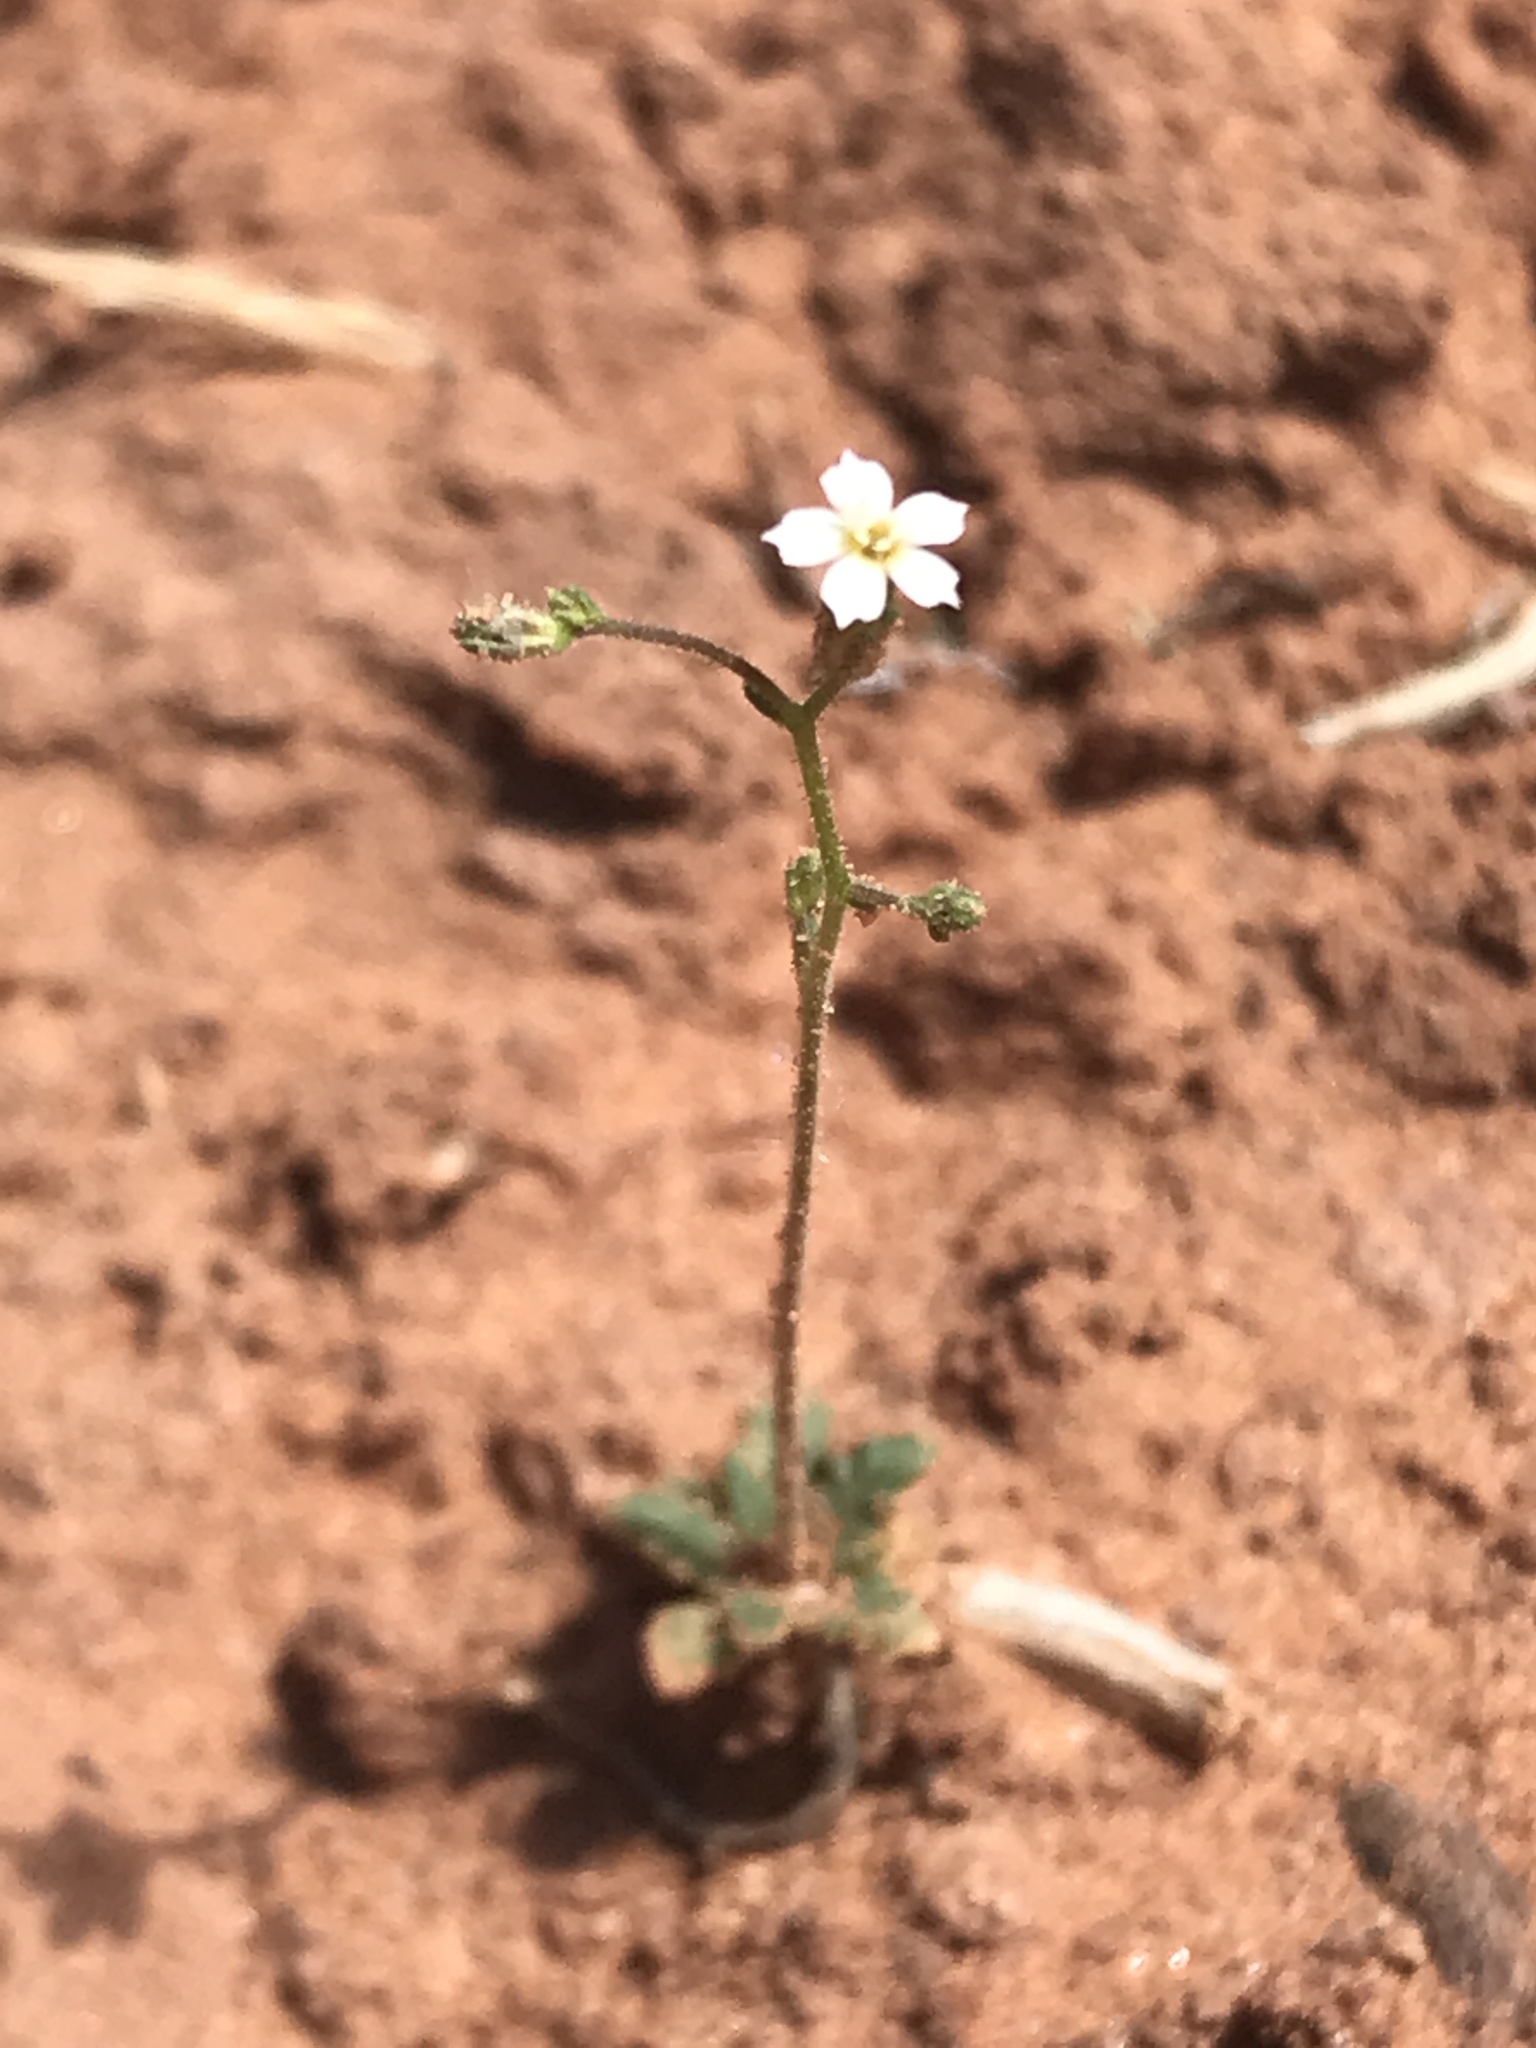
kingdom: Plantae
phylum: Tracheophyta
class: Magnoliopsida
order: Ericales
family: Polemoniaceae
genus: Aliciella
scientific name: Aliciella leptomeria
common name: Sand gilia
